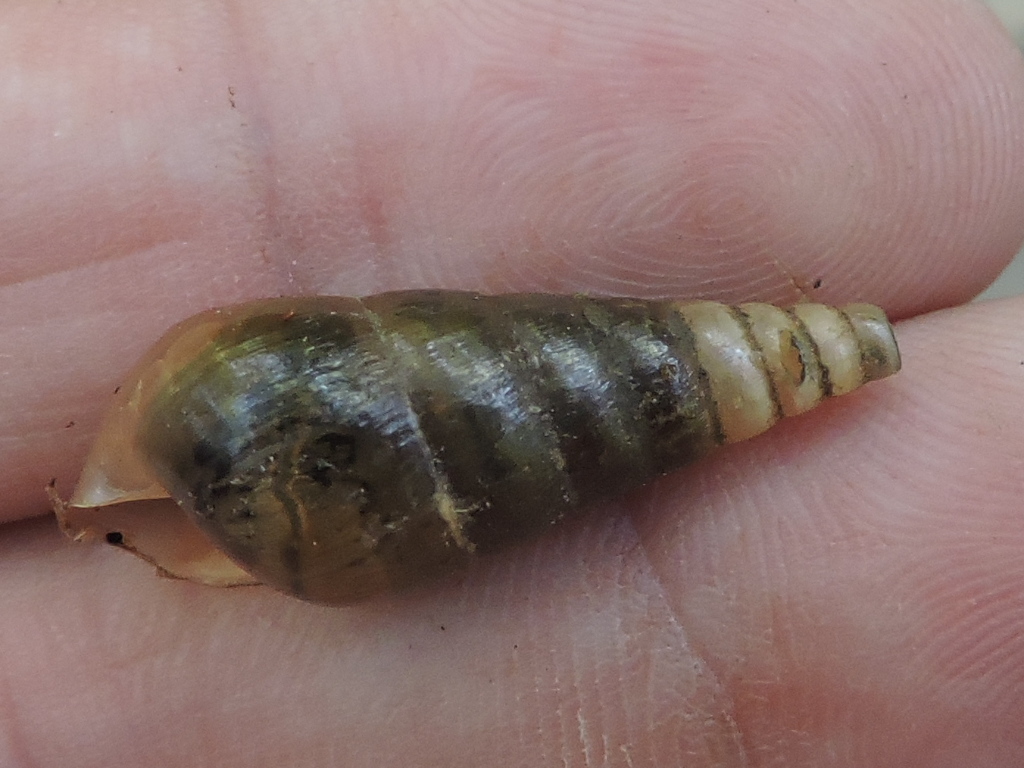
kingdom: Animalia
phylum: Mollusca
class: Gastropoda
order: Stylommatophora
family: Achatinidae
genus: Rumina
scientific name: Rumina decollata
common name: Decollate snail
